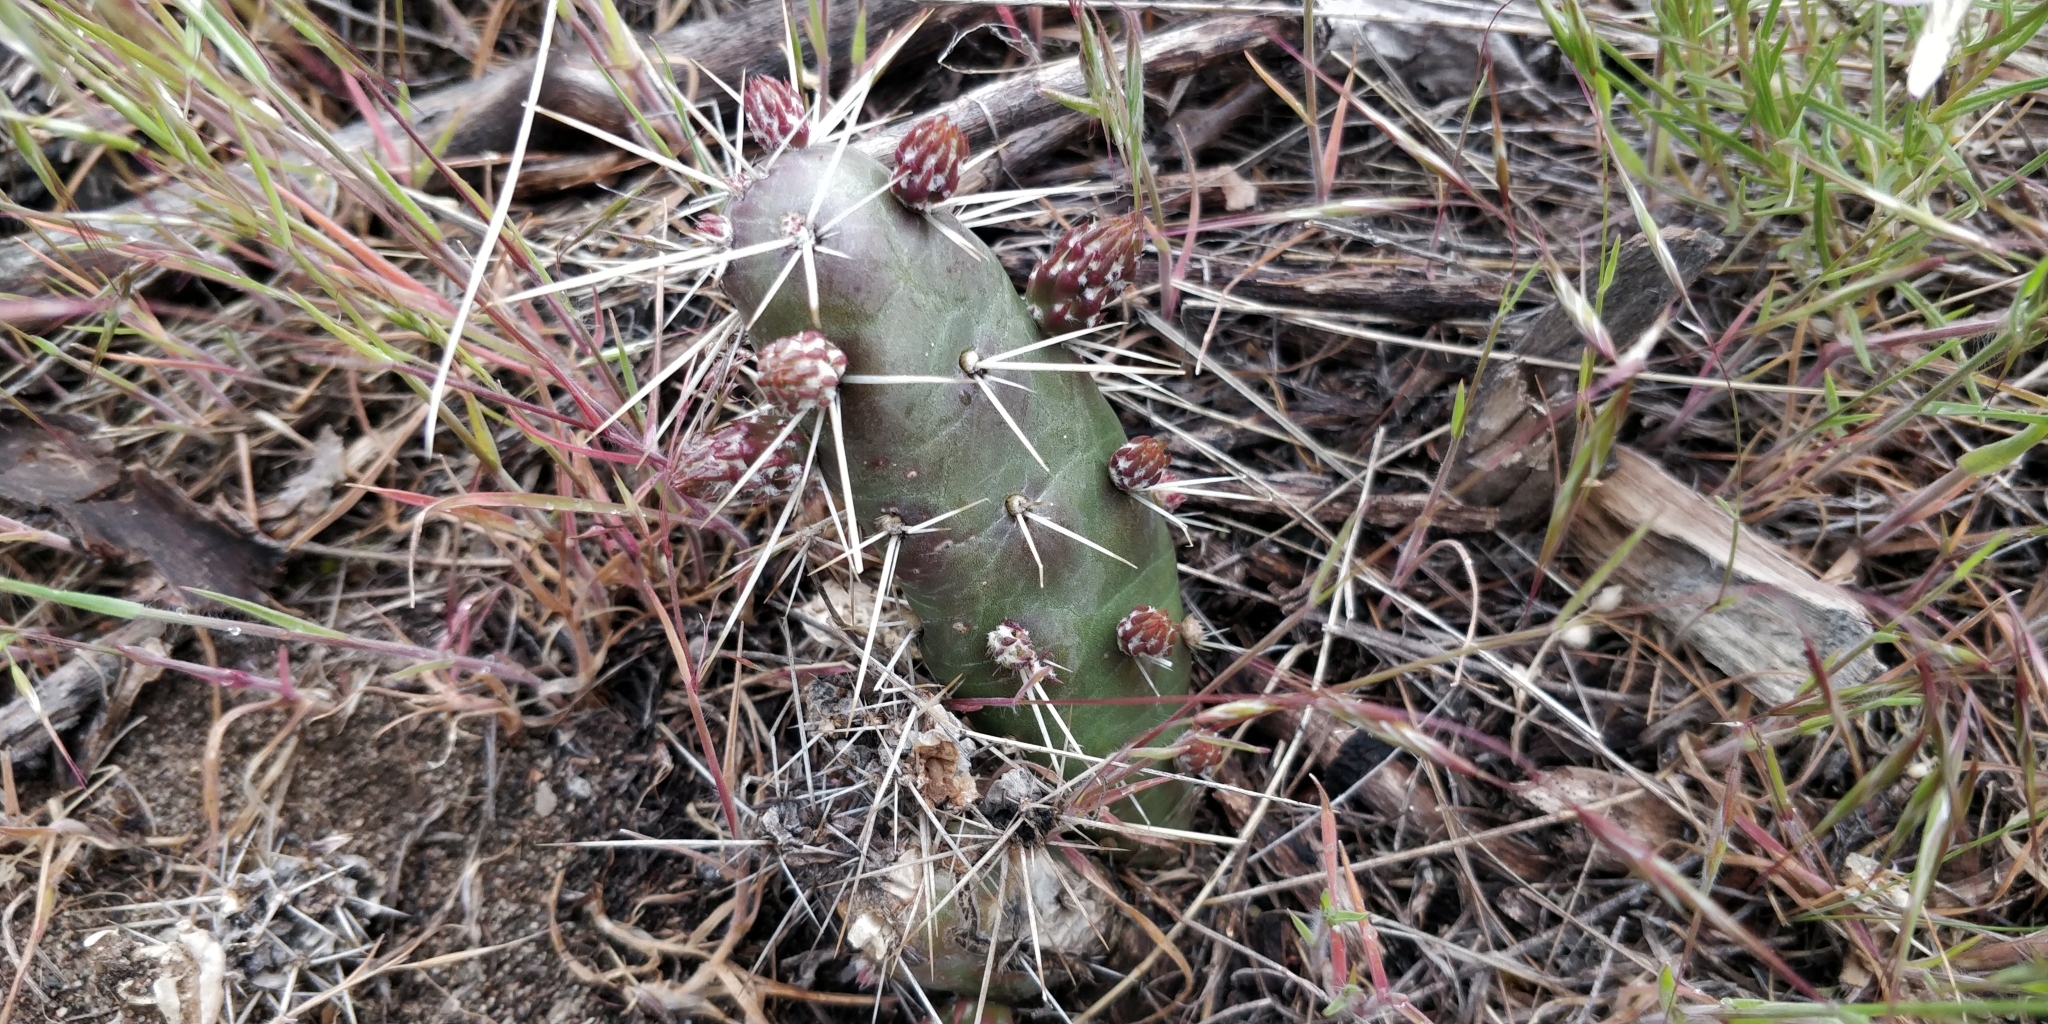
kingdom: Plantae
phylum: Tracheophyta
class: Magnoliopsida
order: Caryophyllales
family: Cactaceae
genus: Opuntia
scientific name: Opuntia fragilis
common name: Brittle cactus
